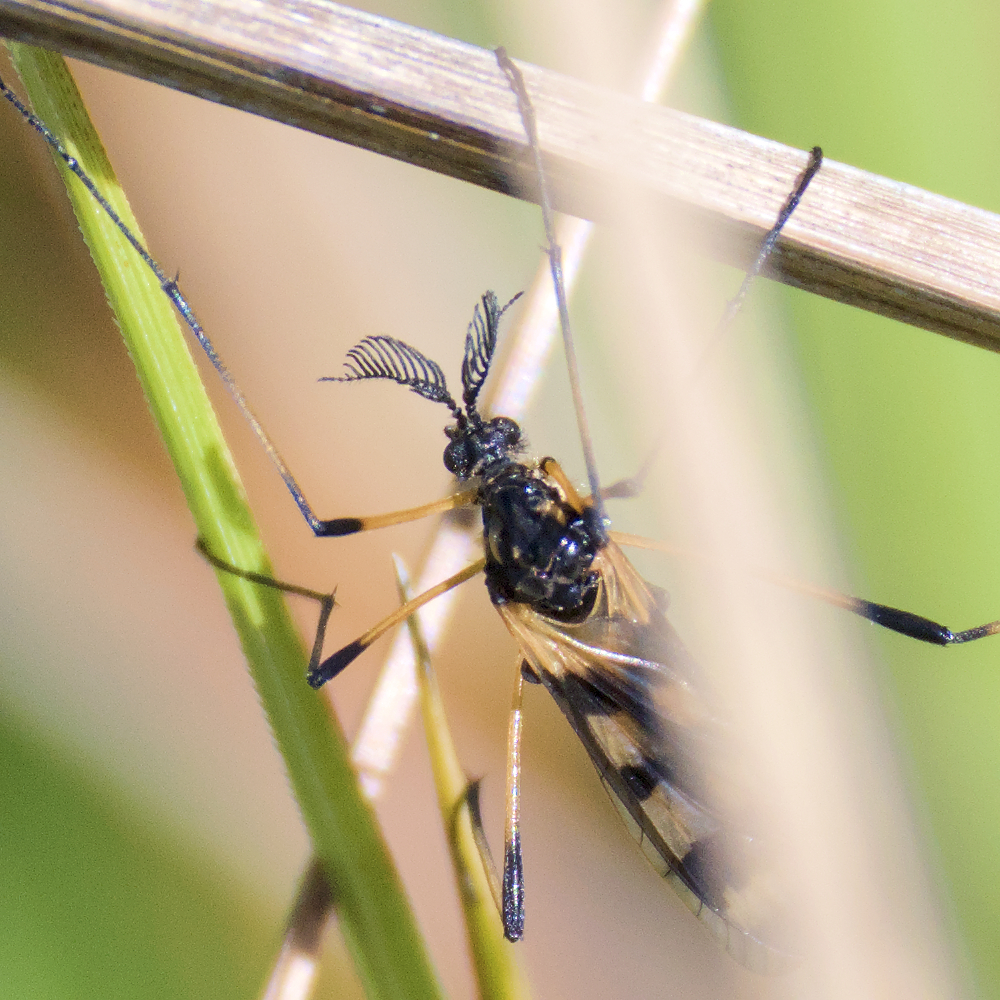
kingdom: Animalia
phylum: Arthropoda
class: Insecta
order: Diptera
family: Limoniidae
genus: Gynoplistia
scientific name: Gynoplistia bella
